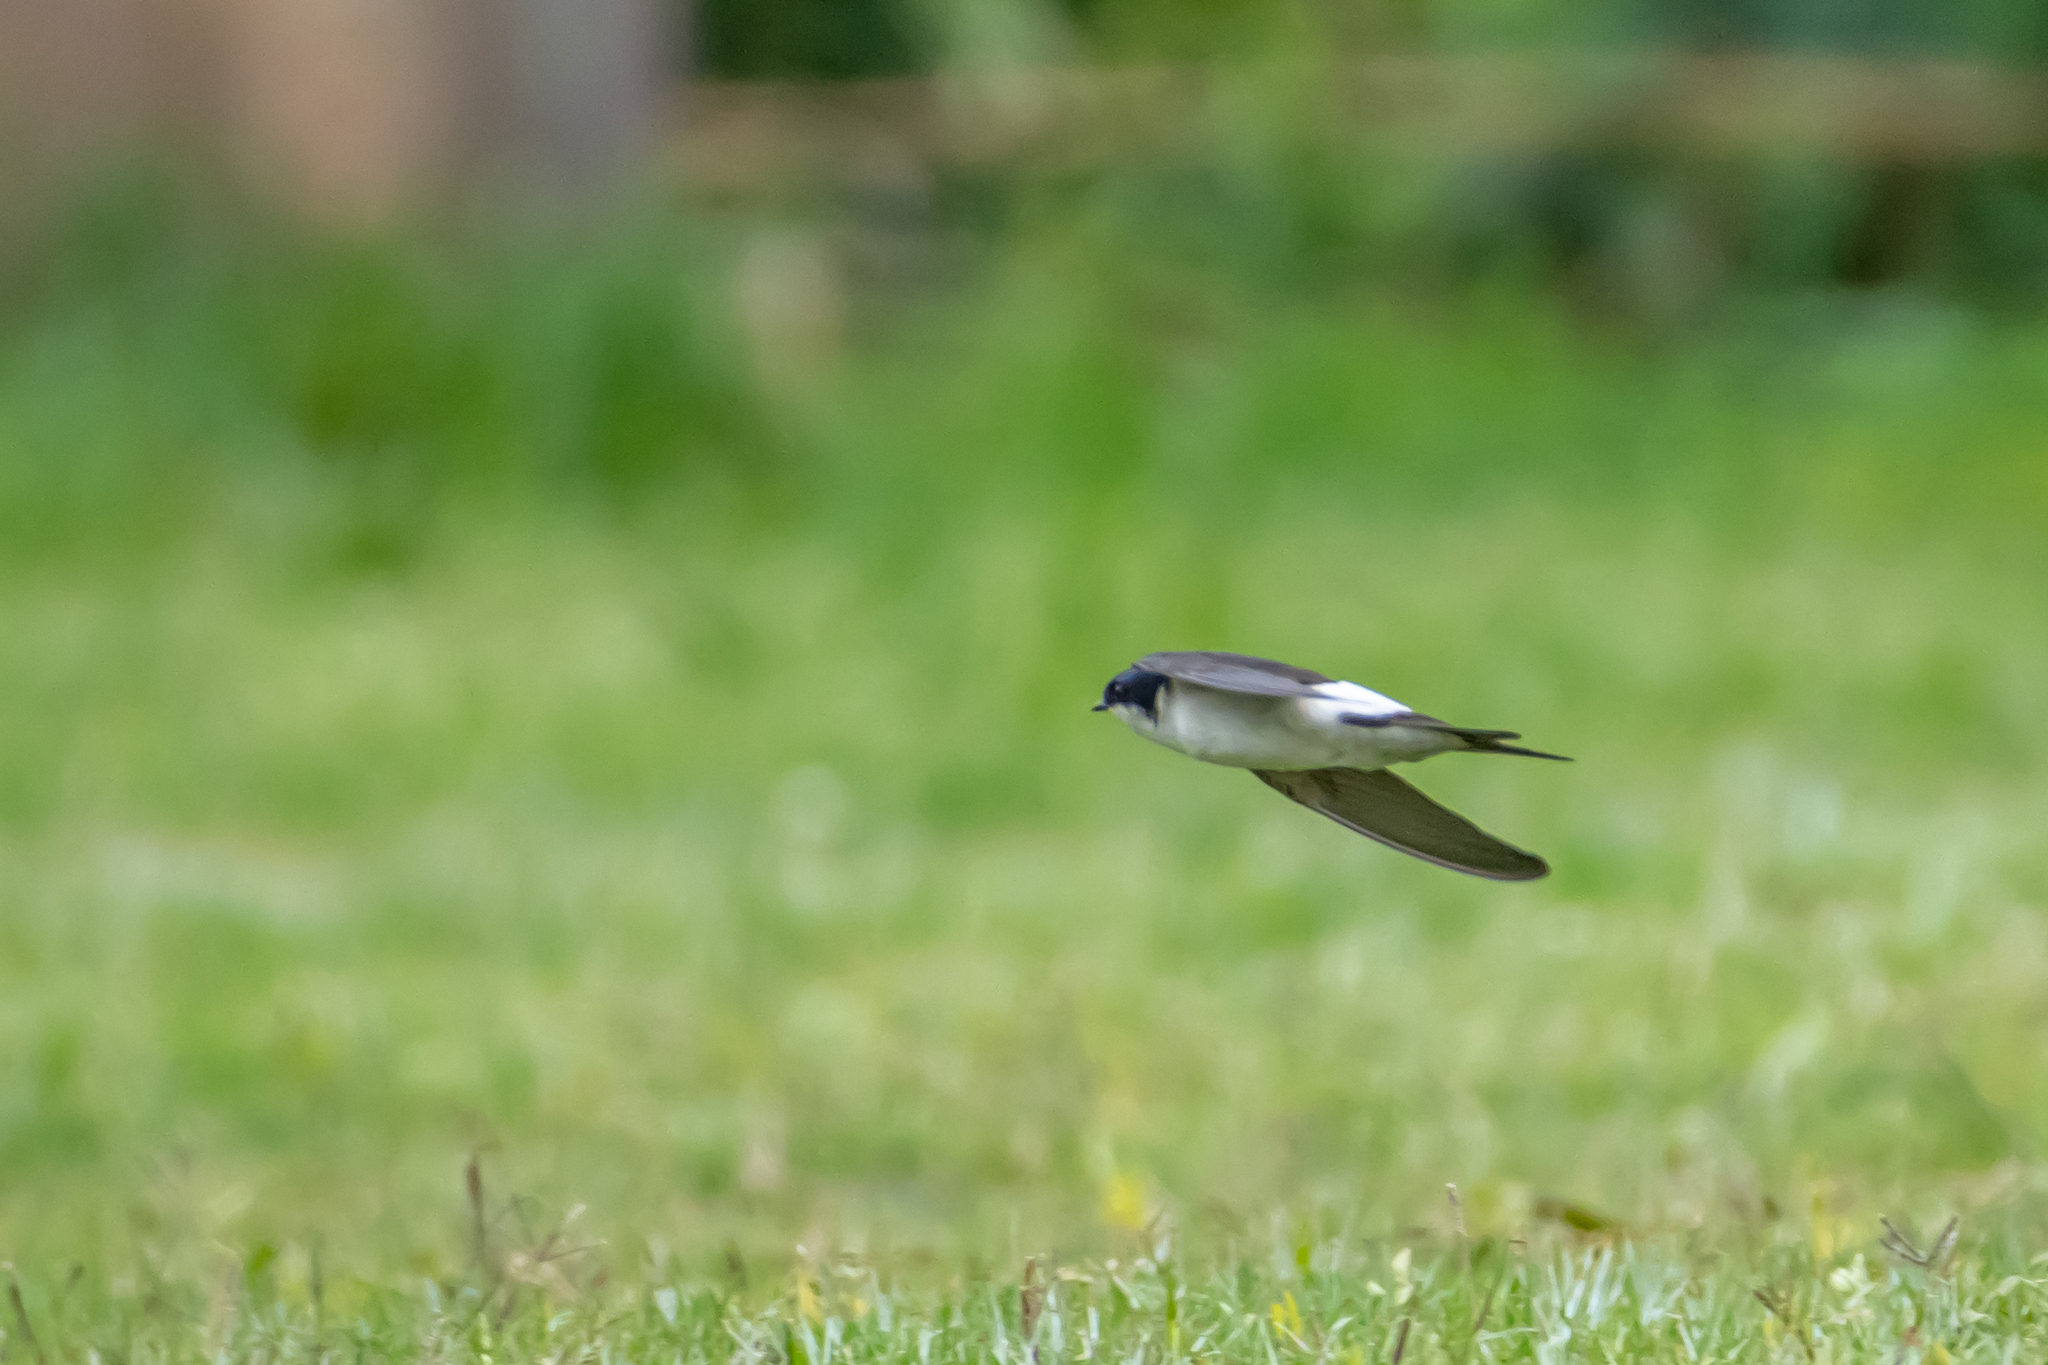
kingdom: Animalia
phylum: Chordata
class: Aves
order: Passeriformes
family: Hirundinidae
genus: Delichon
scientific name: Delichon urbicum
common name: Common house martin
